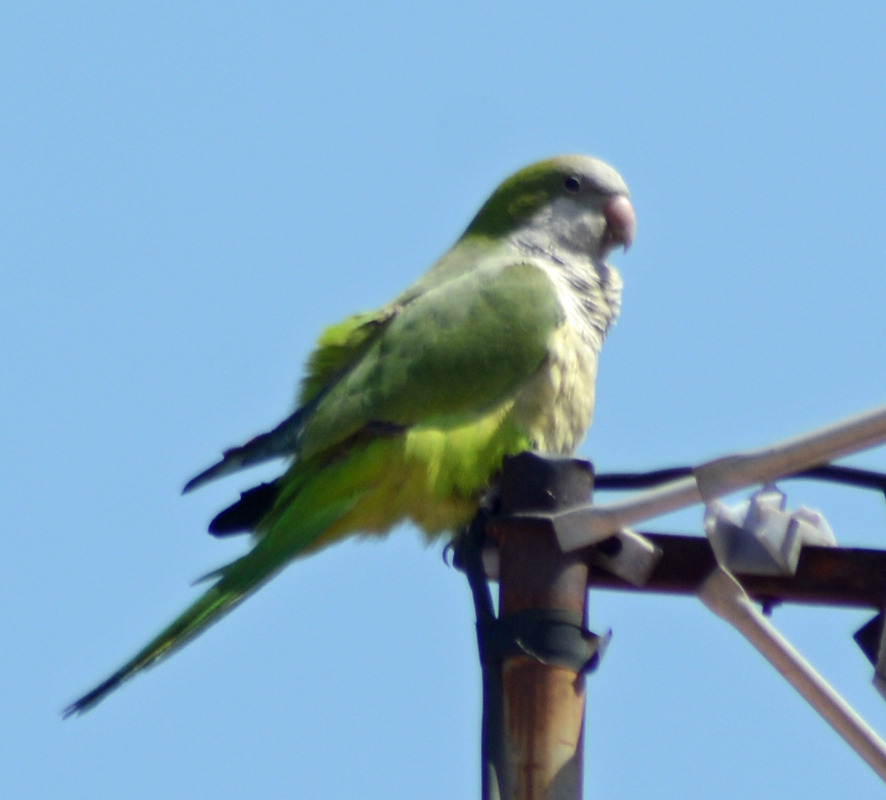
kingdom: Animalia
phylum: Chordata
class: Aves
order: Psittaciformes
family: Psittacidae
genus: Myiopsitta
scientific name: Myiopsitta monachus
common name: Monk parakeet
